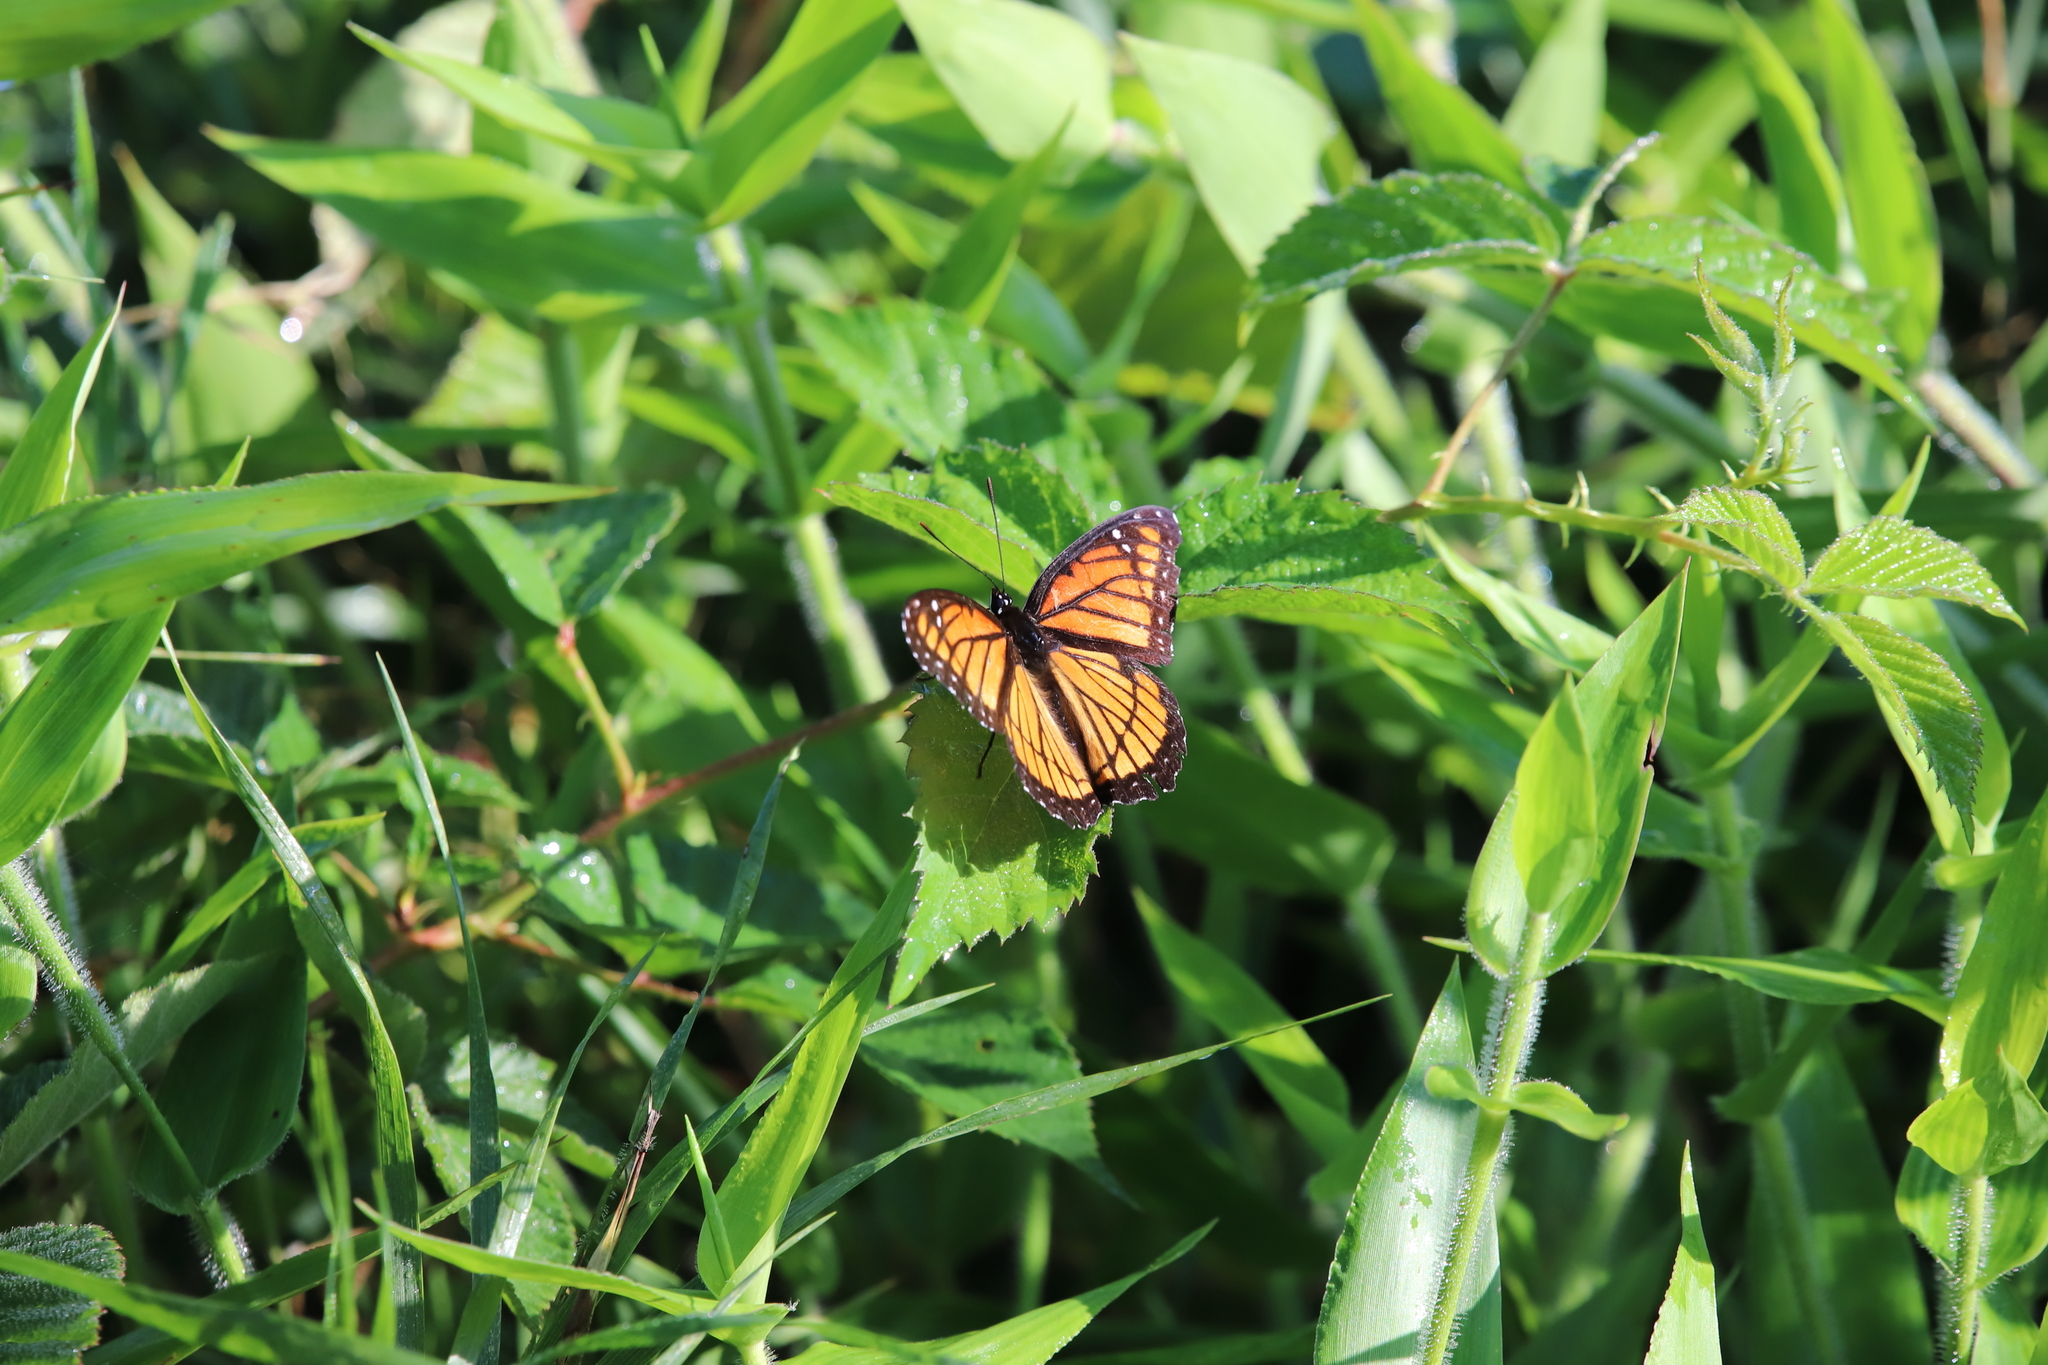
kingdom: Animalia
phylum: Arthropoda
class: Insecta
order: Lepidoptera
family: Nymphalidae
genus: Limenitis
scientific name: Limenitis archippus
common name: Viceroy
